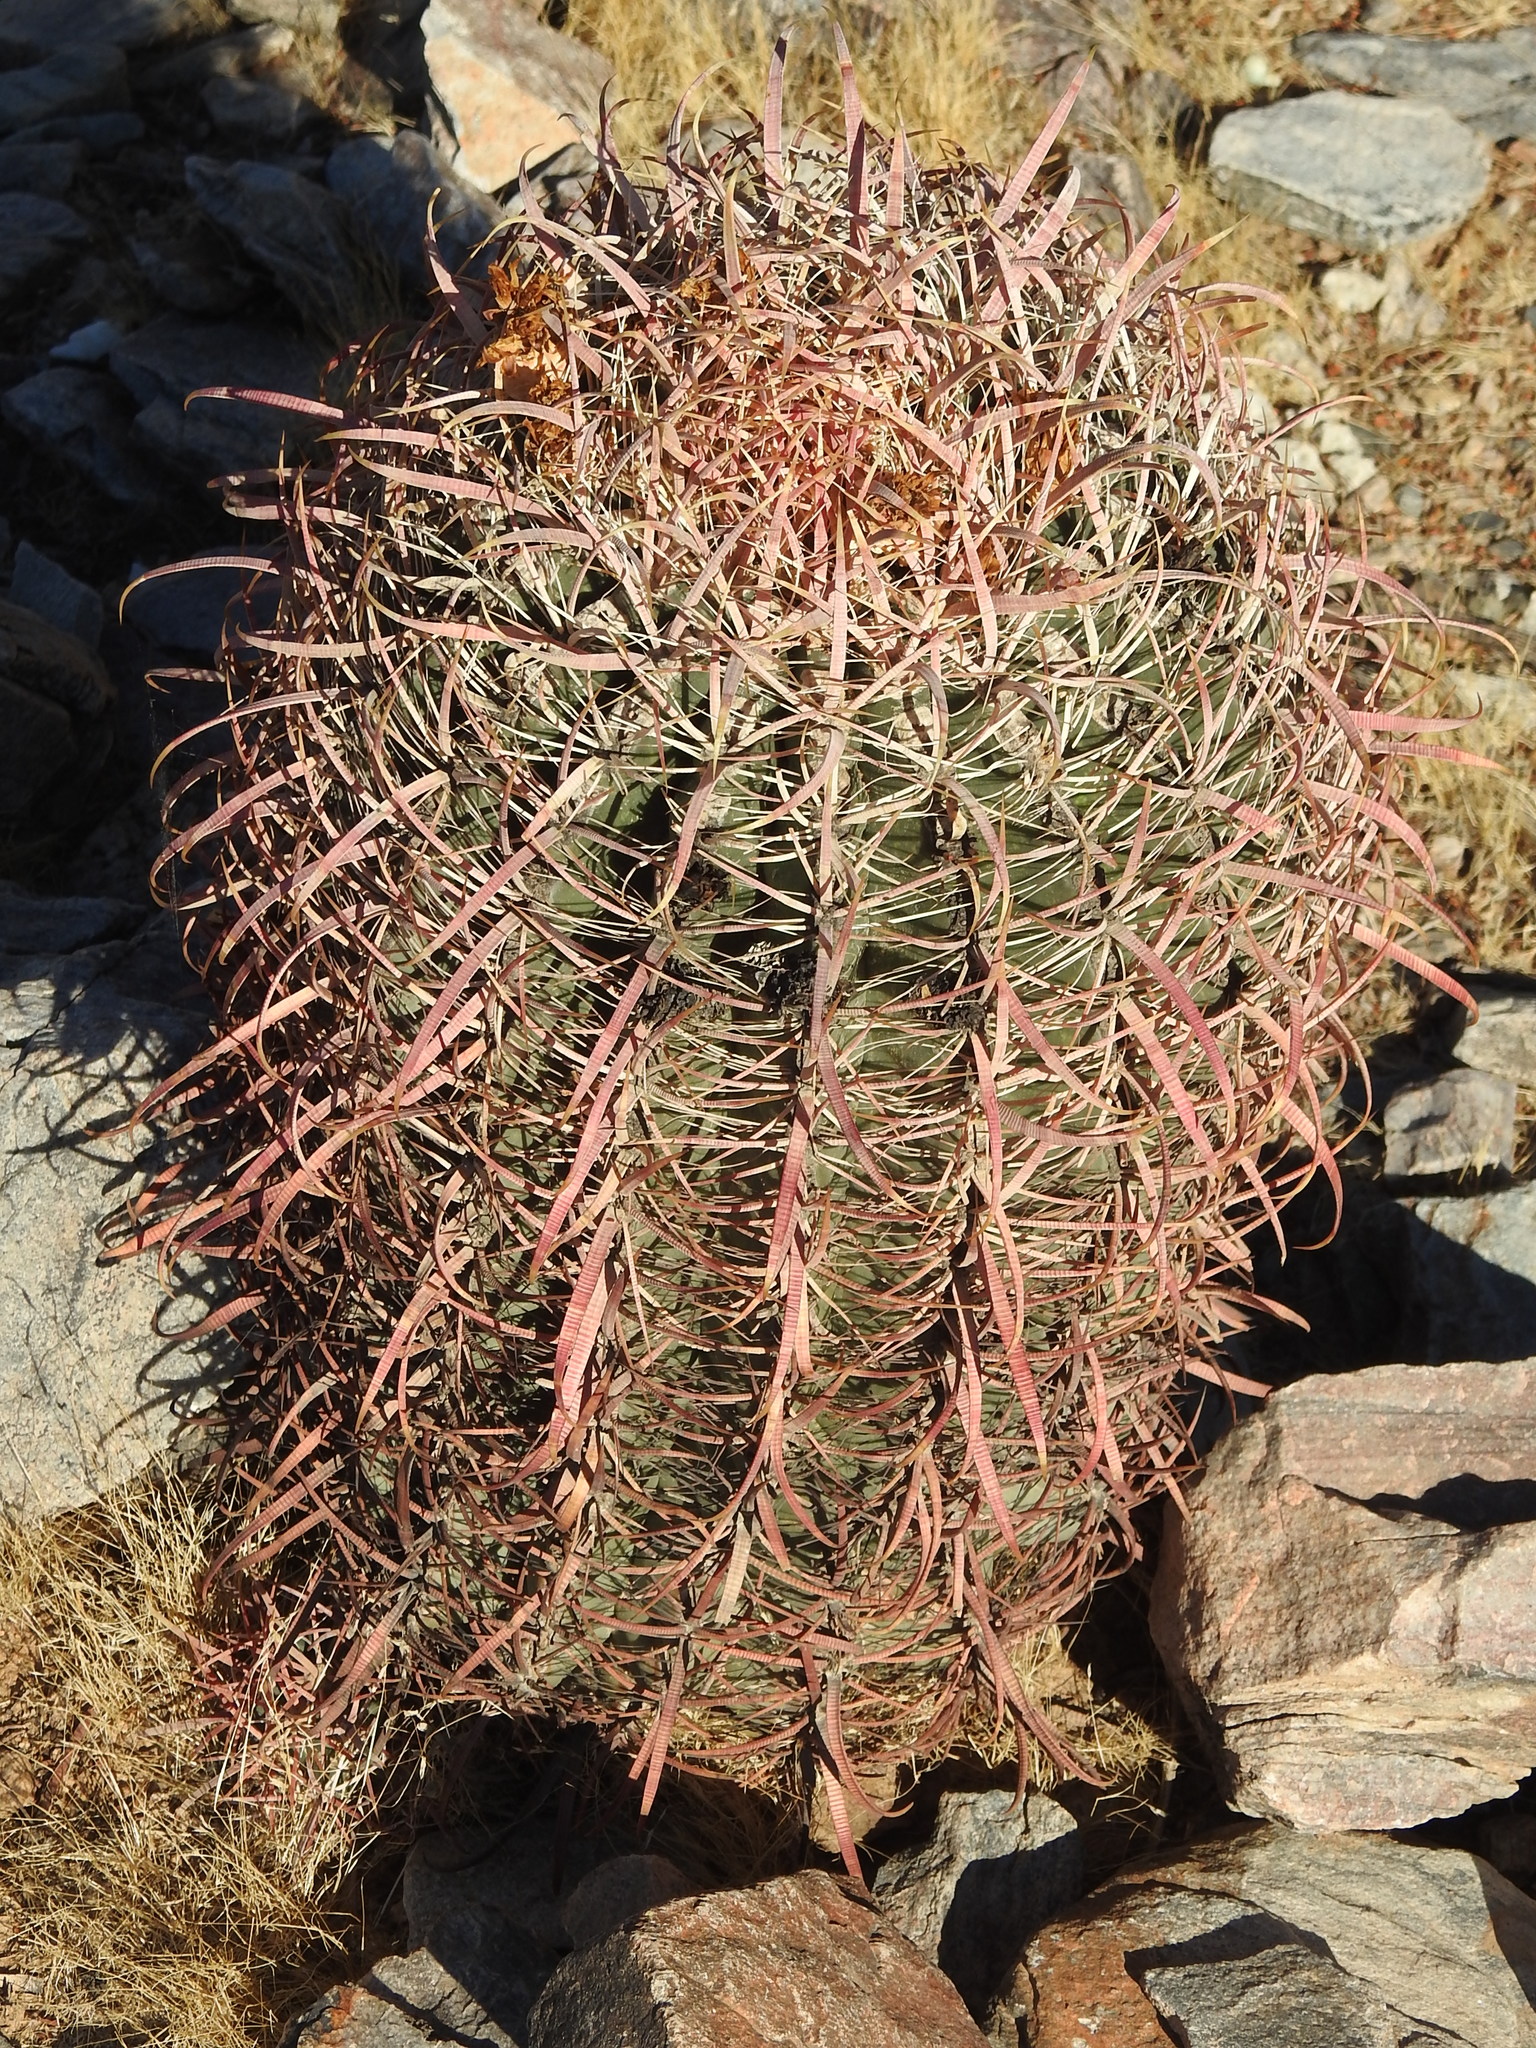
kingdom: Plantae
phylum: Tracheophyta
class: Magnoliopsida
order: Caryophyllales
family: Cactaceae
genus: Ferocactus
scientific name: Ferocactus cylindraceus
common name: California barrel cactus
